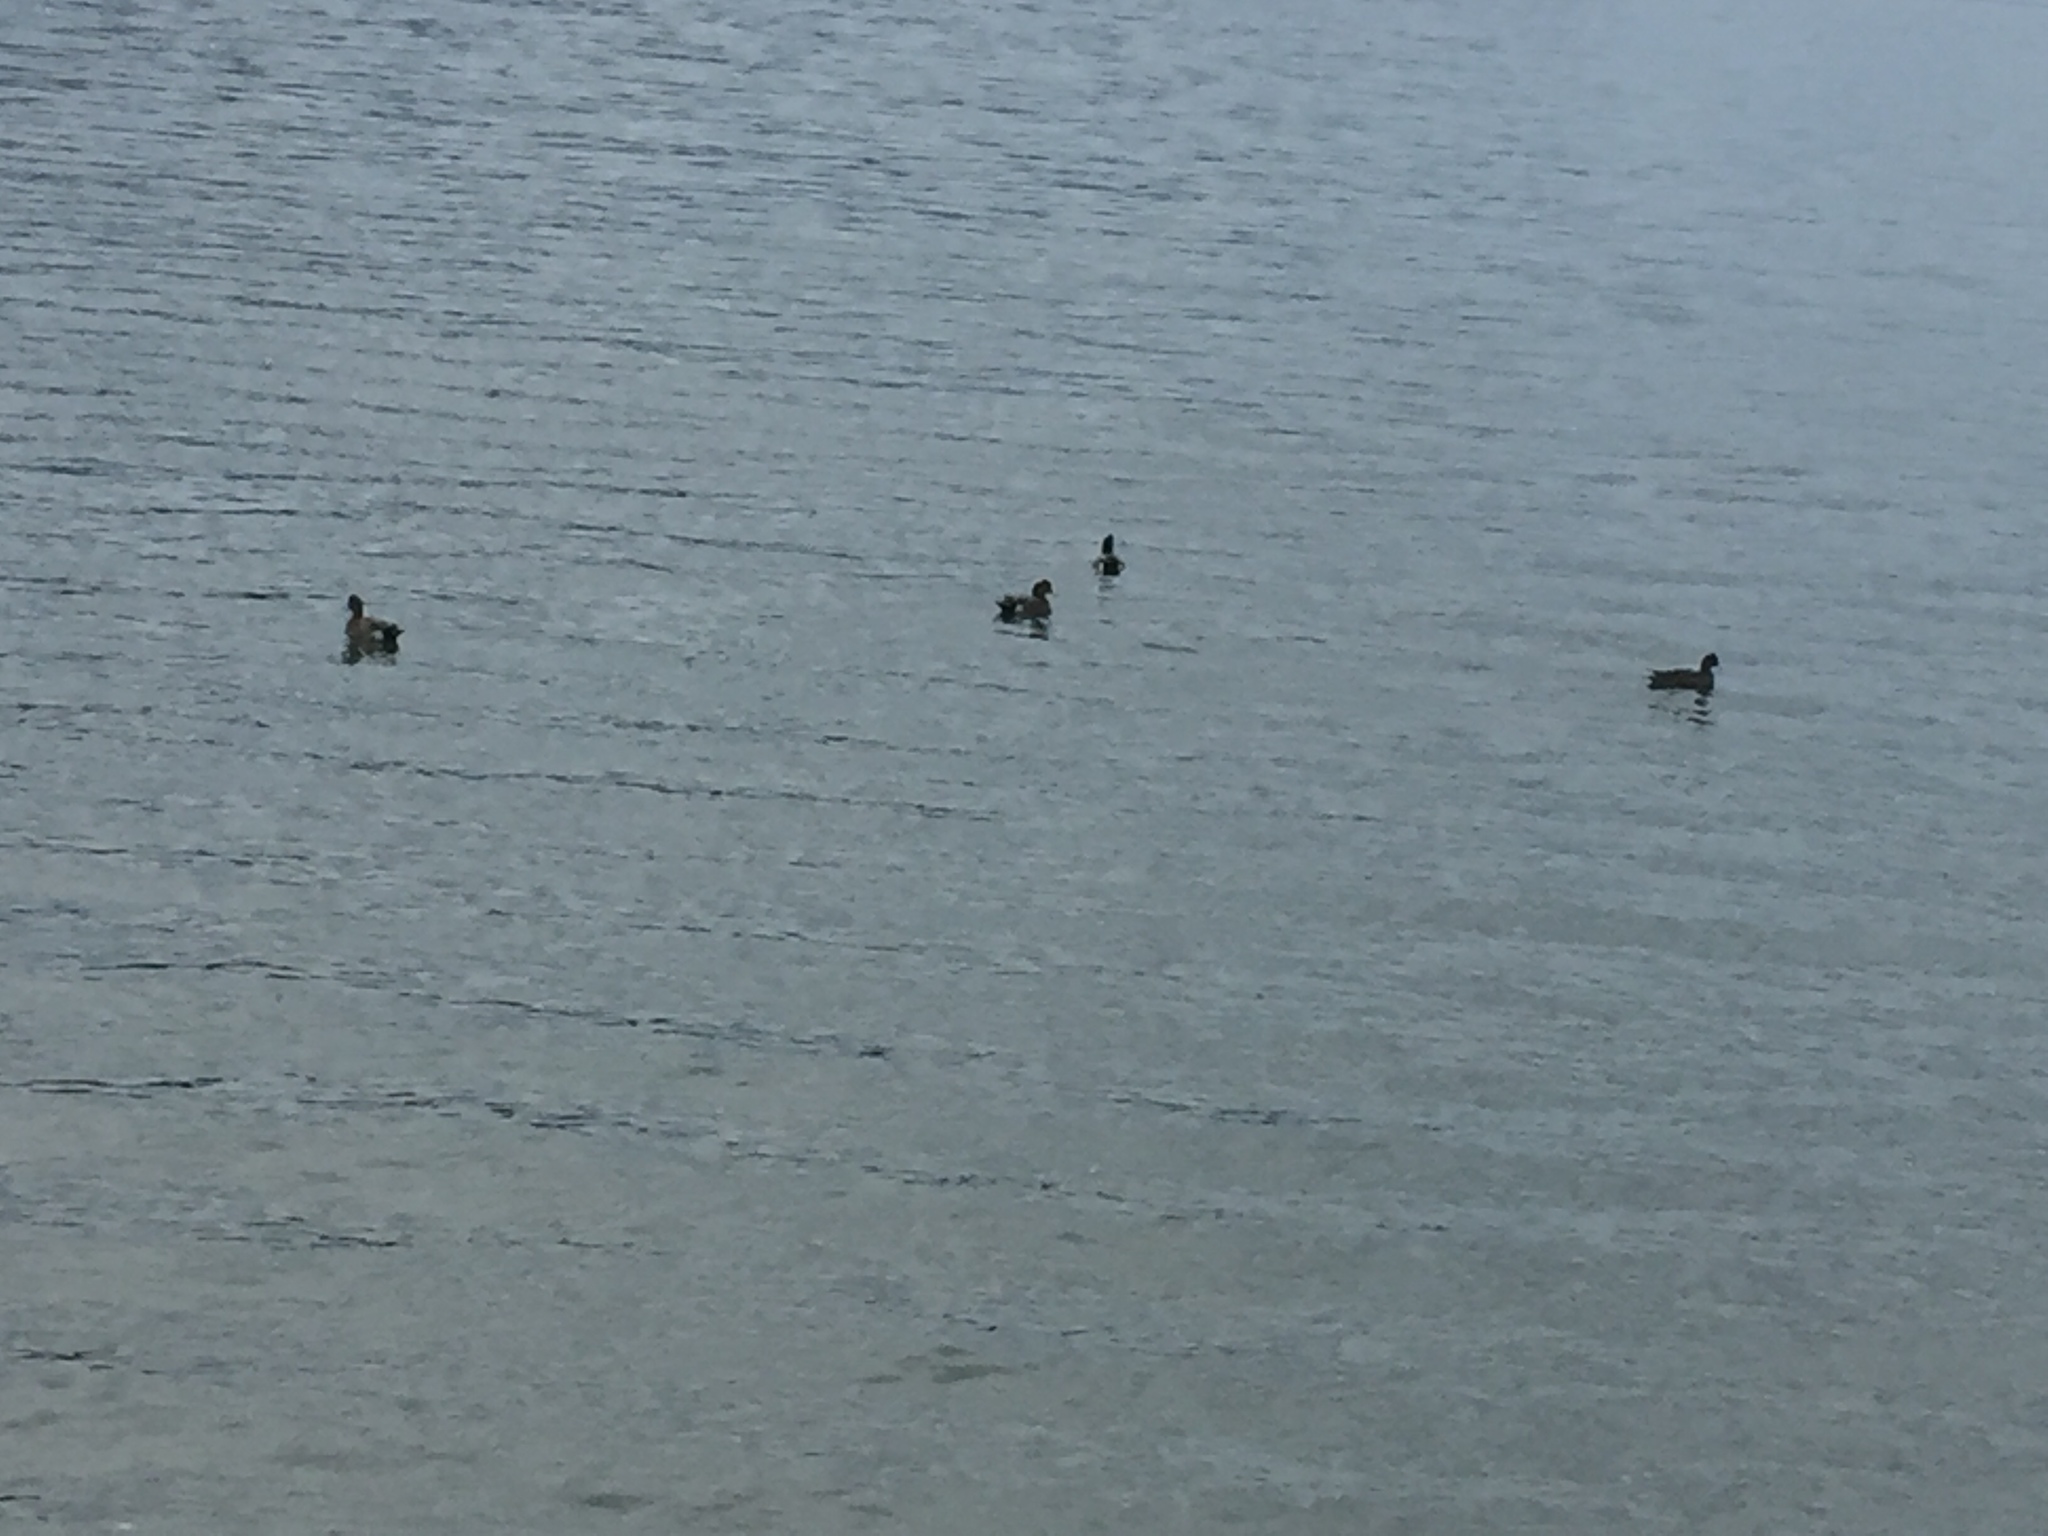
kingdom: Animalia
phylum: Chordata
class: Aves
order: Anseriformes
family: Anatidae
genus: Mareca
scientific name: Mareca americana
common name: American wigeon
